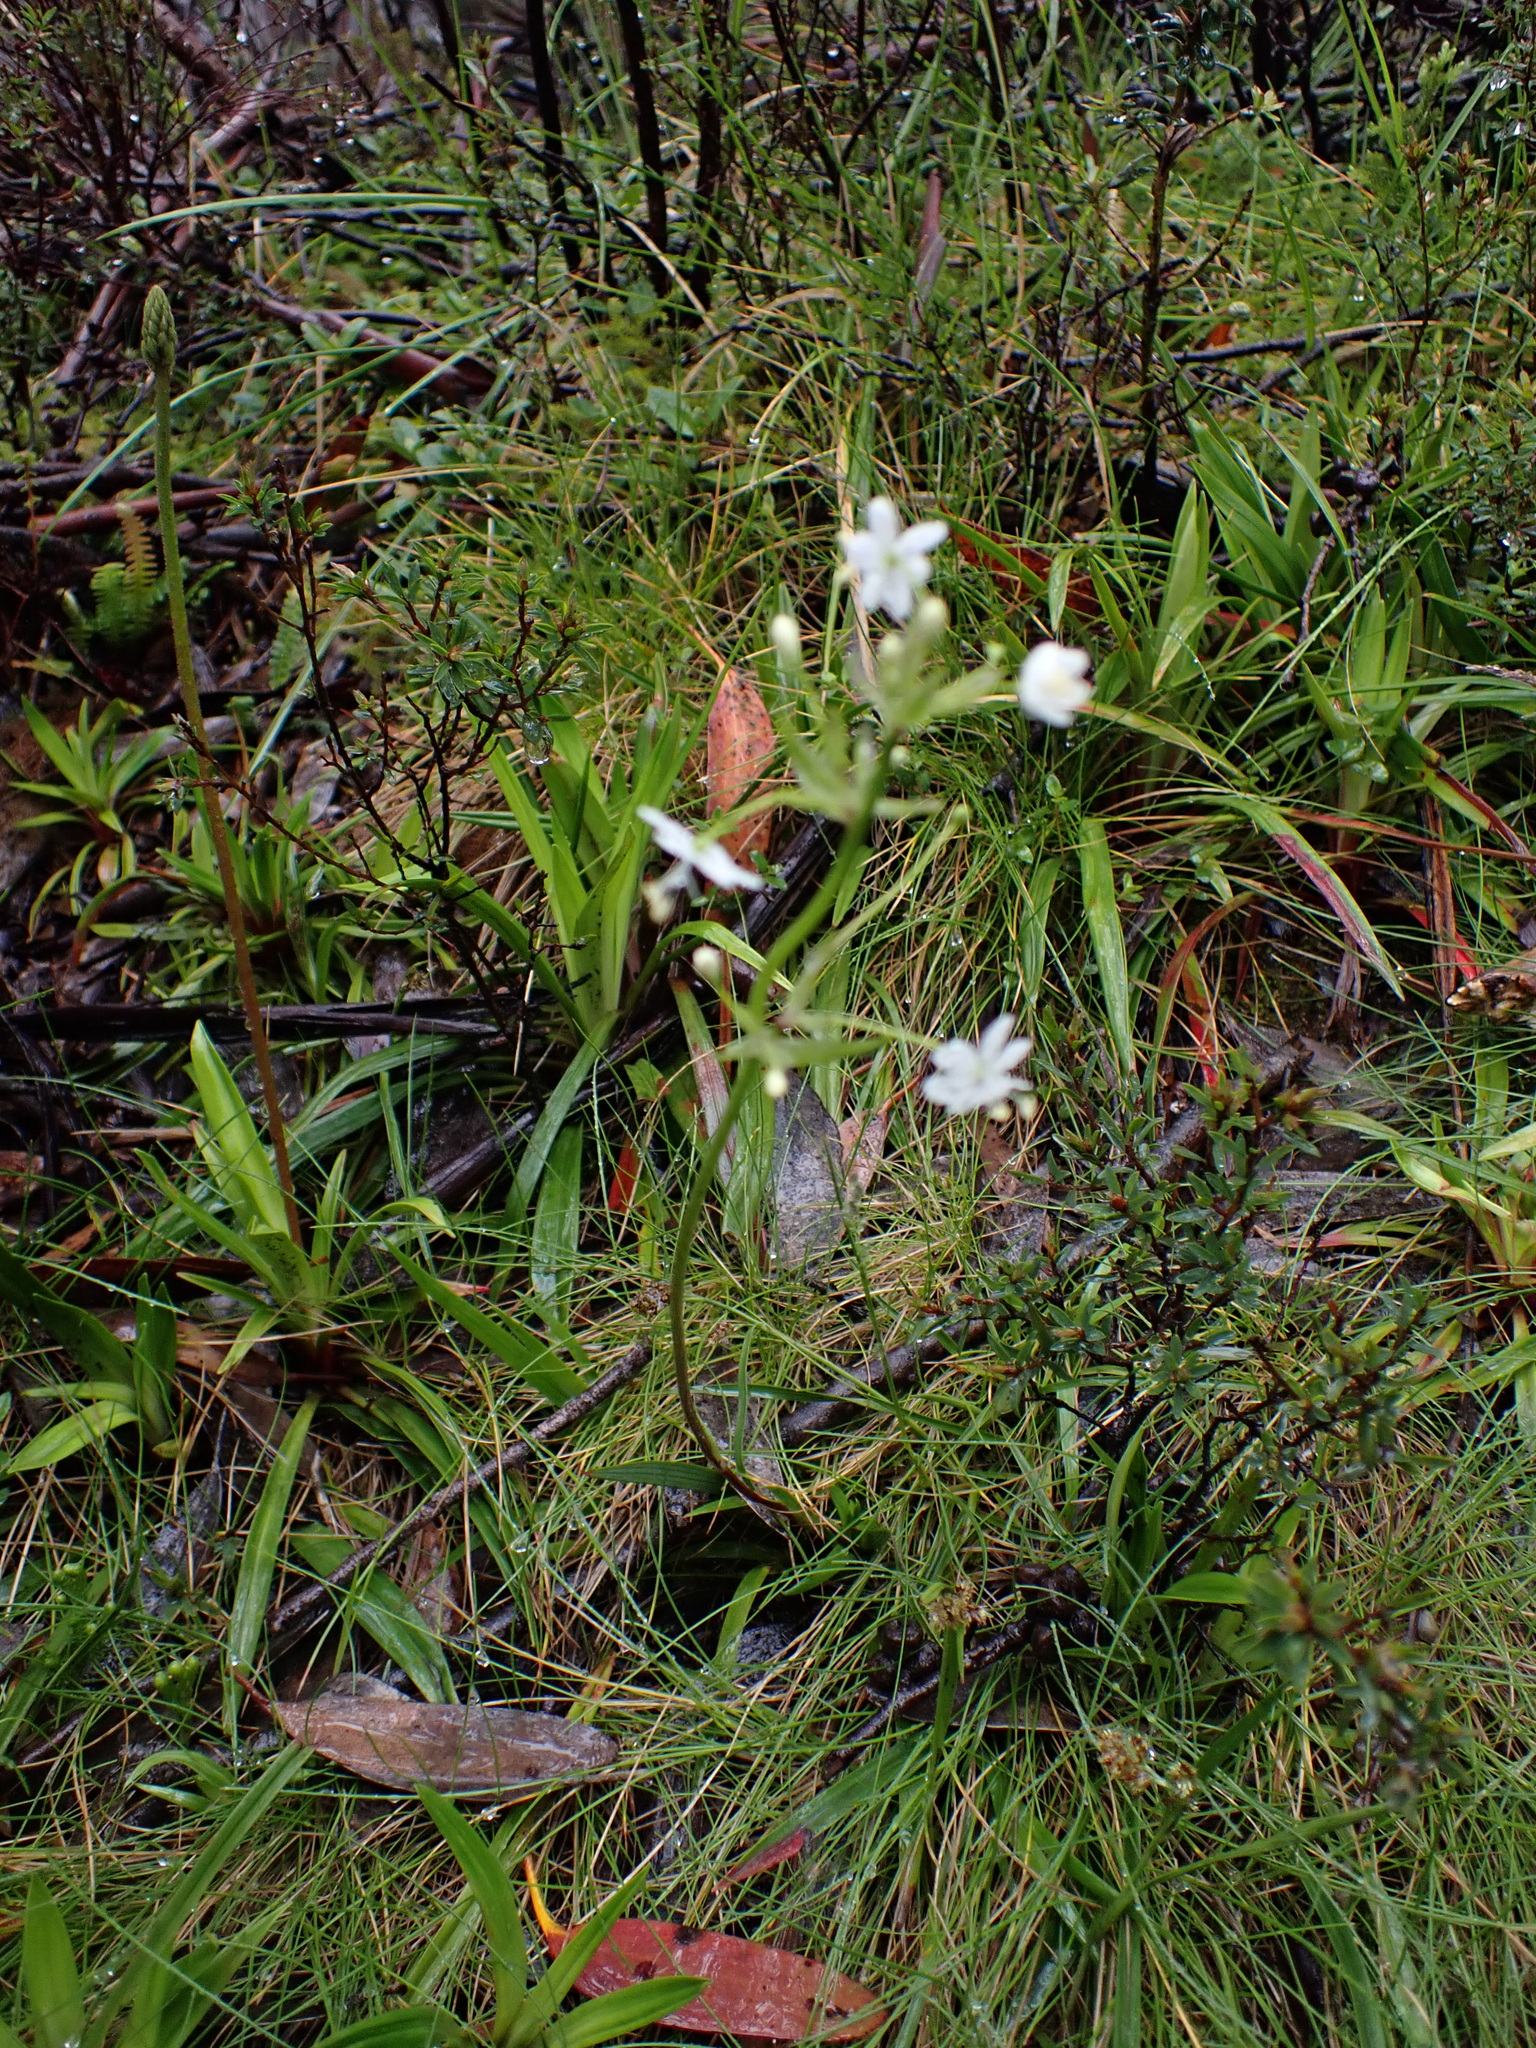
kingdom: Plantae
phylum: Tracheophyta
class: Liliopsida
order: Asparagales
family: Iridaceae
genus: Libertia
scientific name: Libertia pulchella
